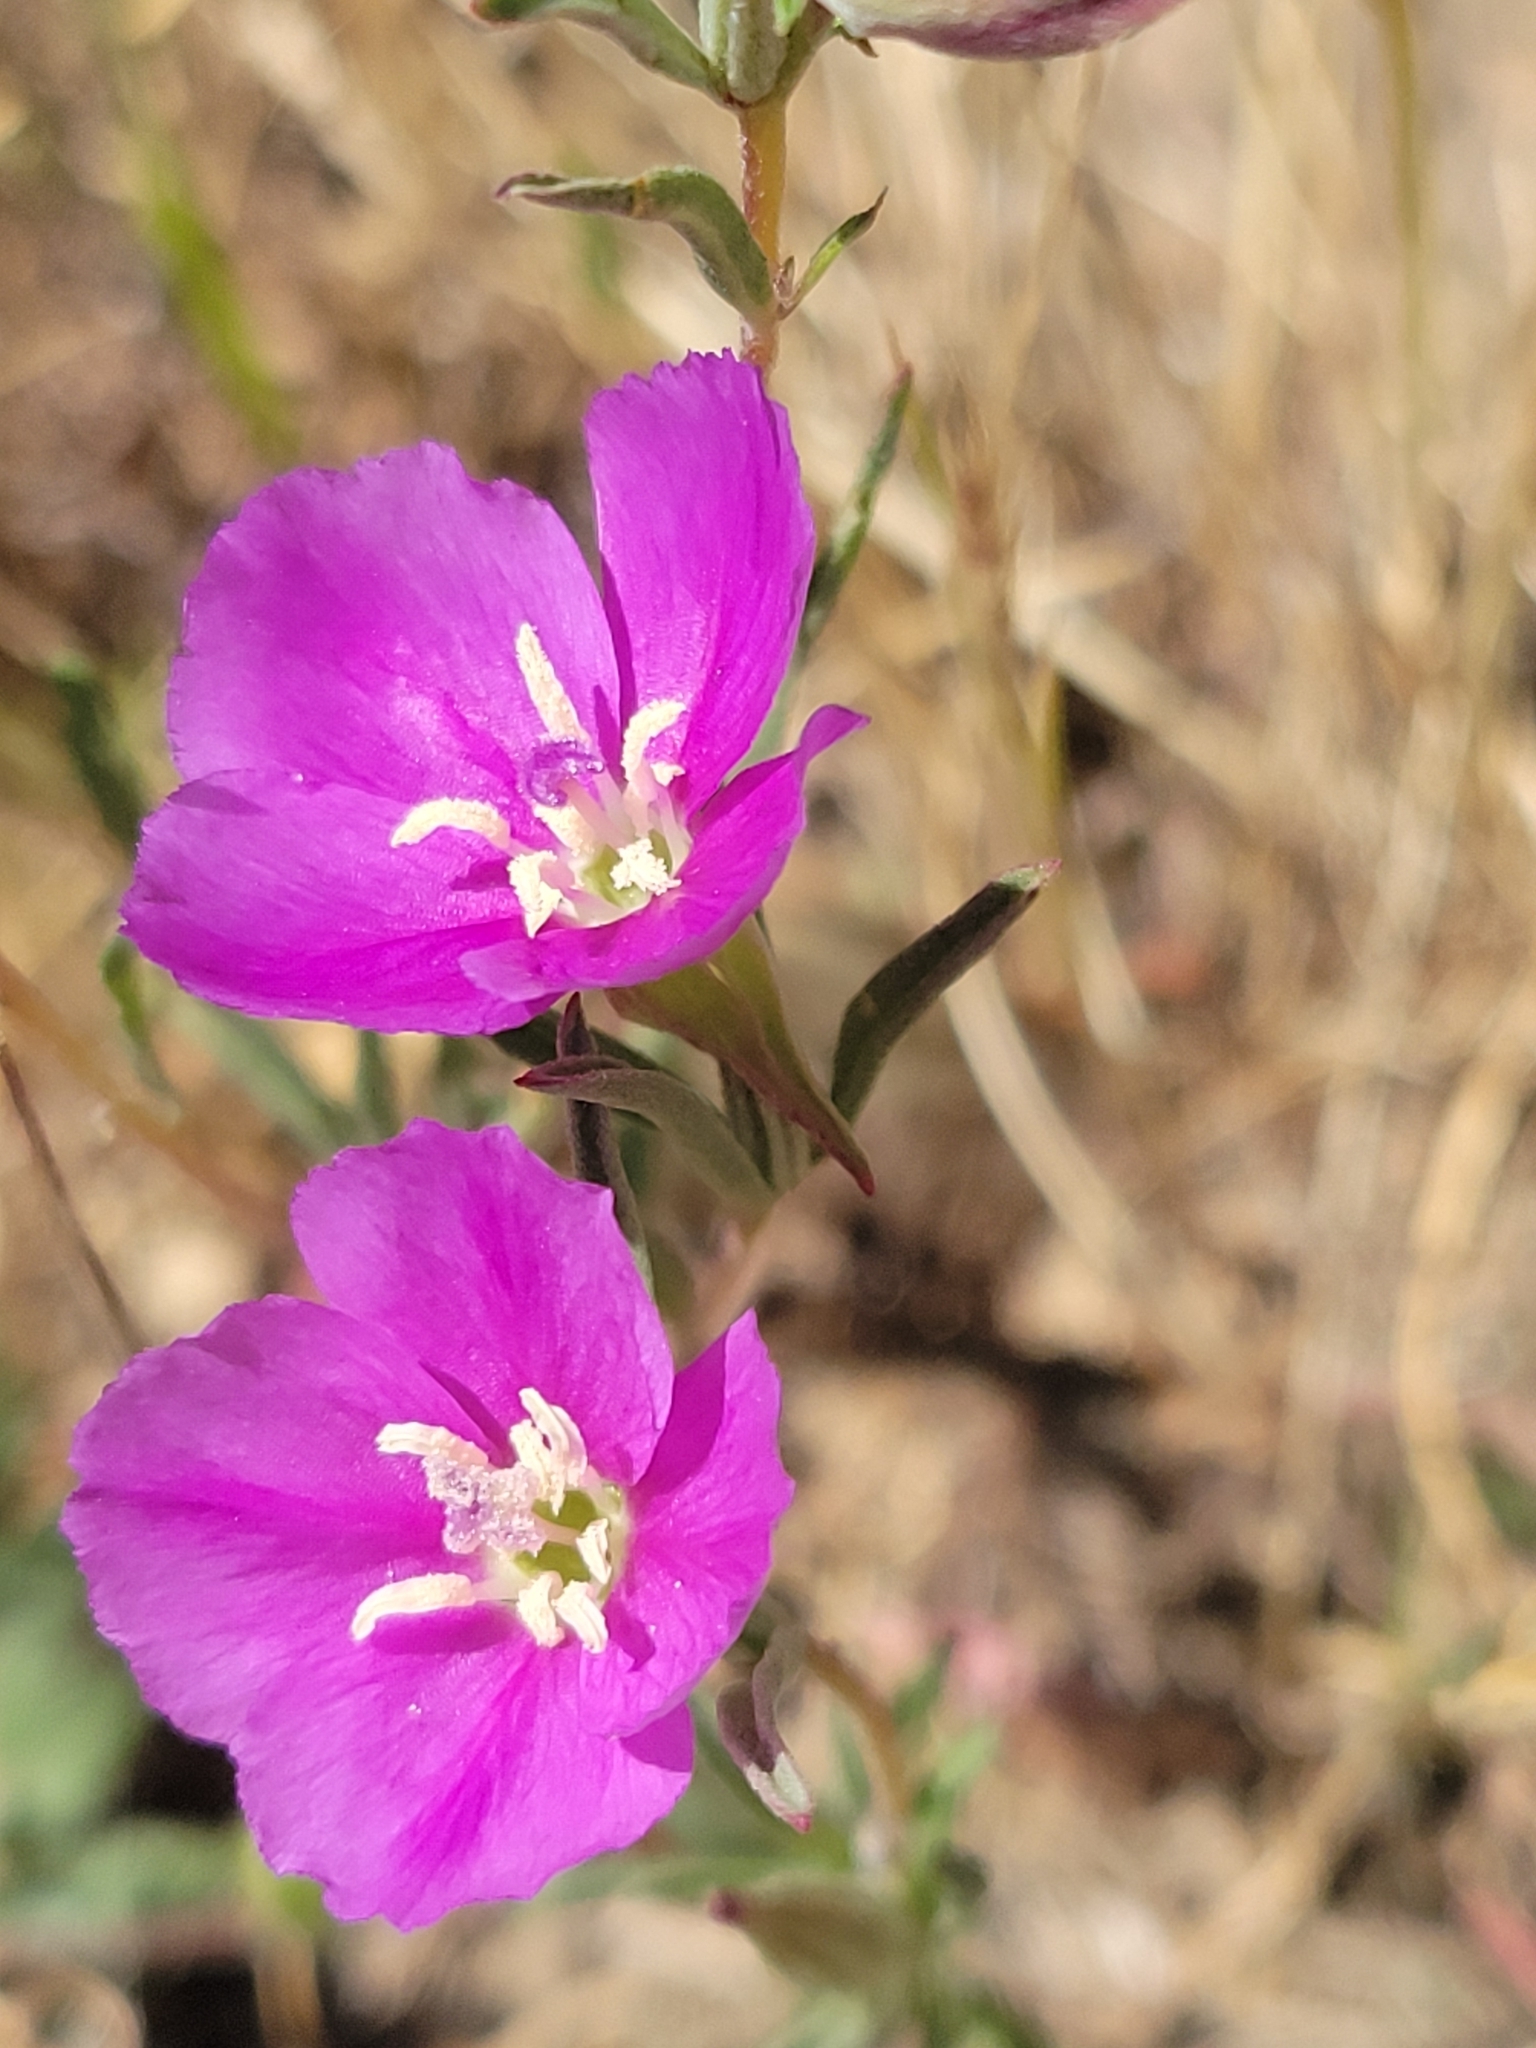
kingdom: Plantae
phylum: Tracheophyta
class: Magnoliopsida
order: Myrtales
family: Onagraceae
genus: Clarkia
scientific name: Clarkia purpurea
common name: Purple clarkia
